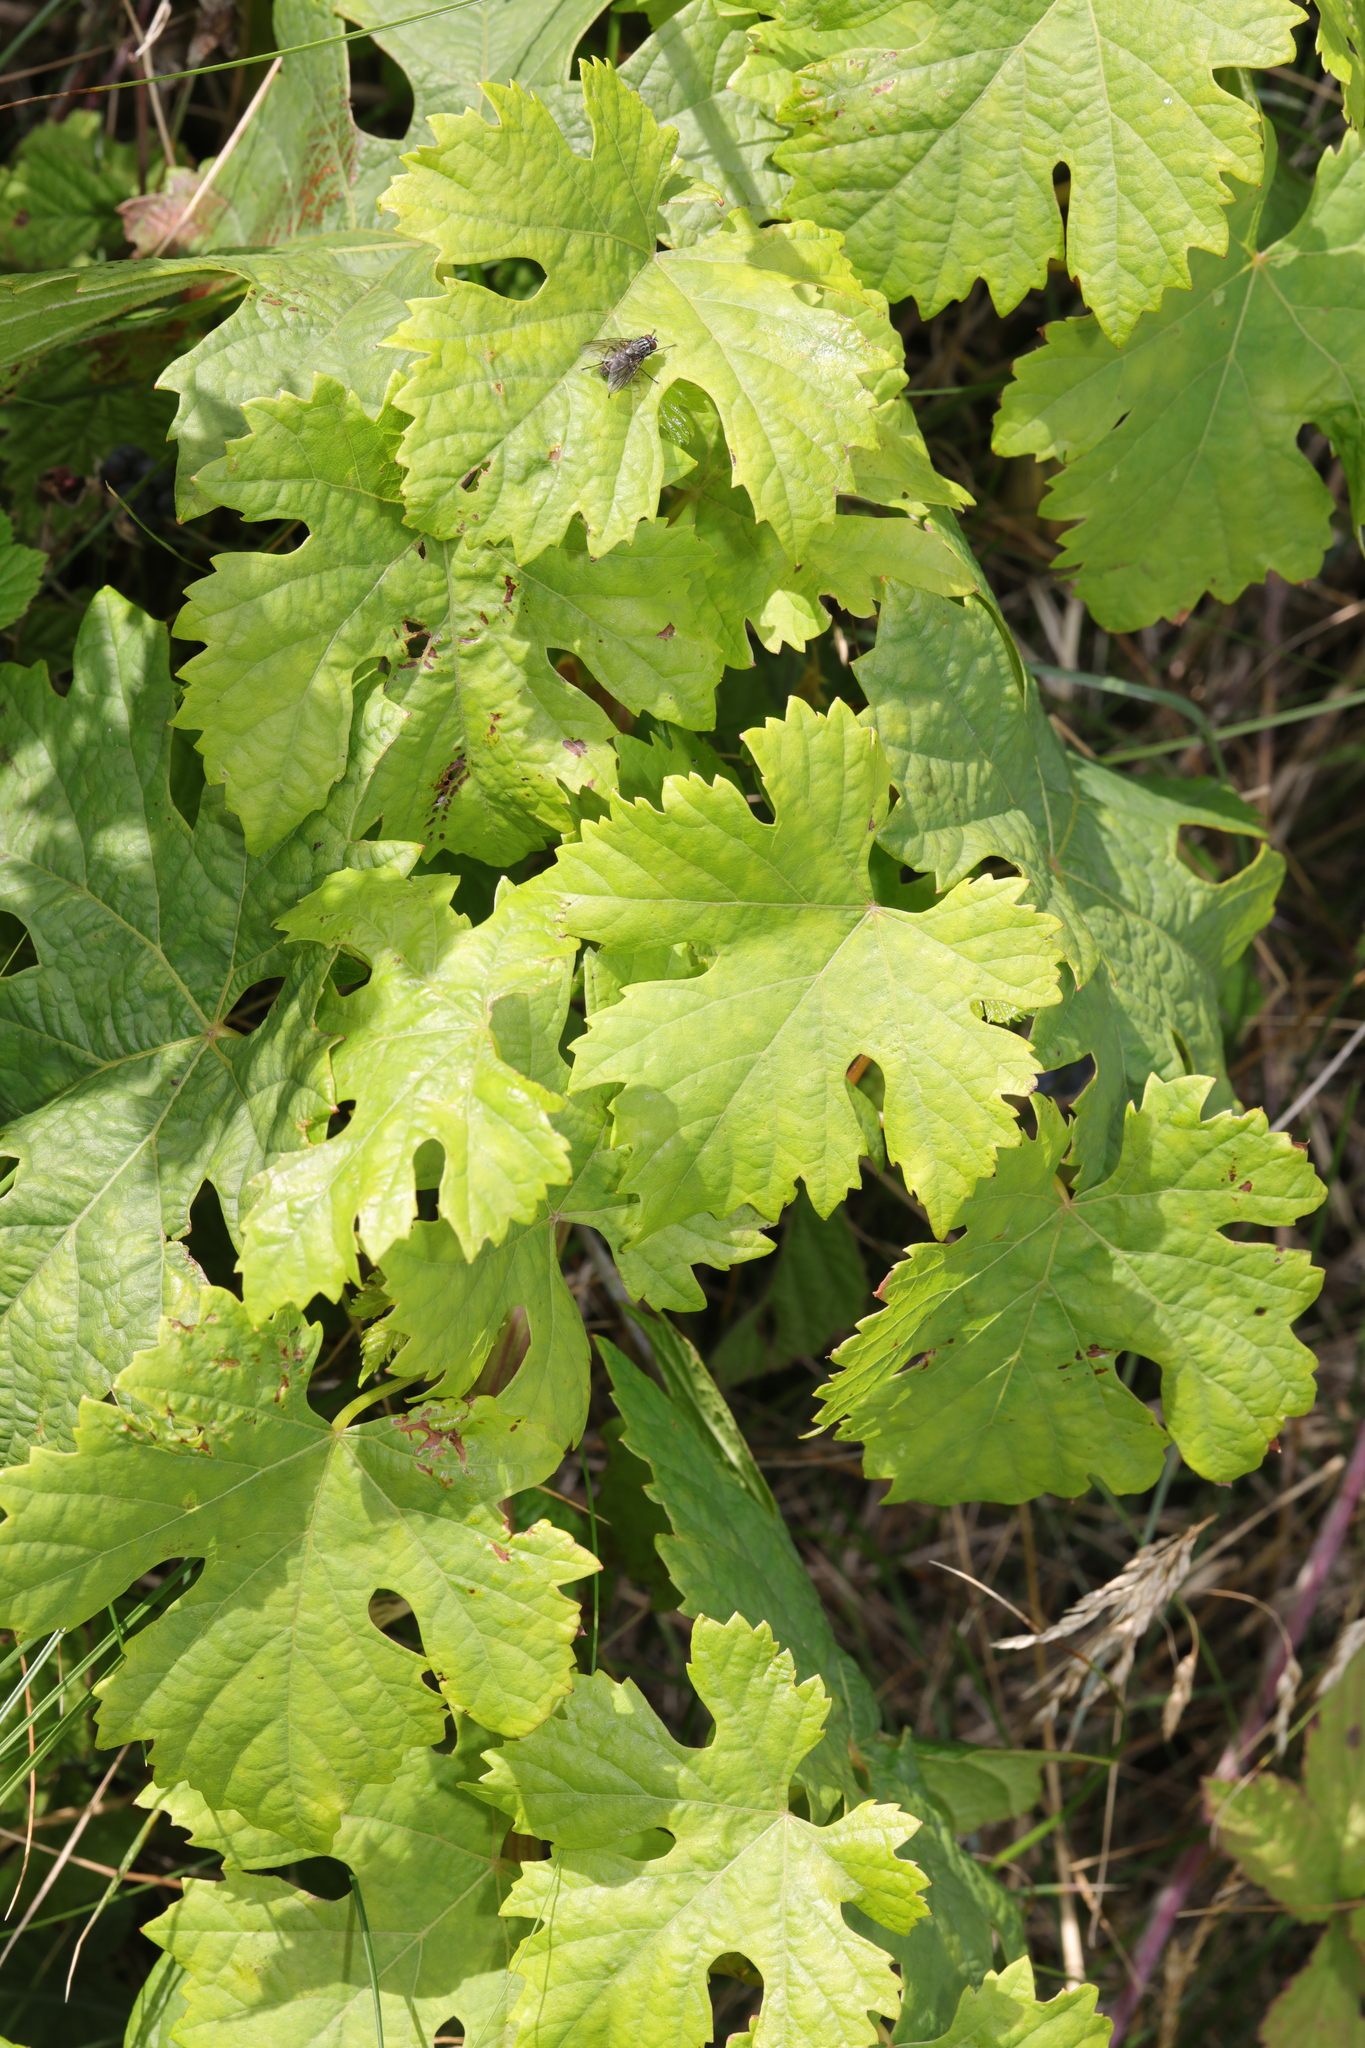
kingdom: Plantae
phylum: Tracheophyta
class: Magnoliopsida
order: Vitales
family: Vitaceae
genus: Vitis
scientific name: Vitis vinifera
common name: Grape-vine
